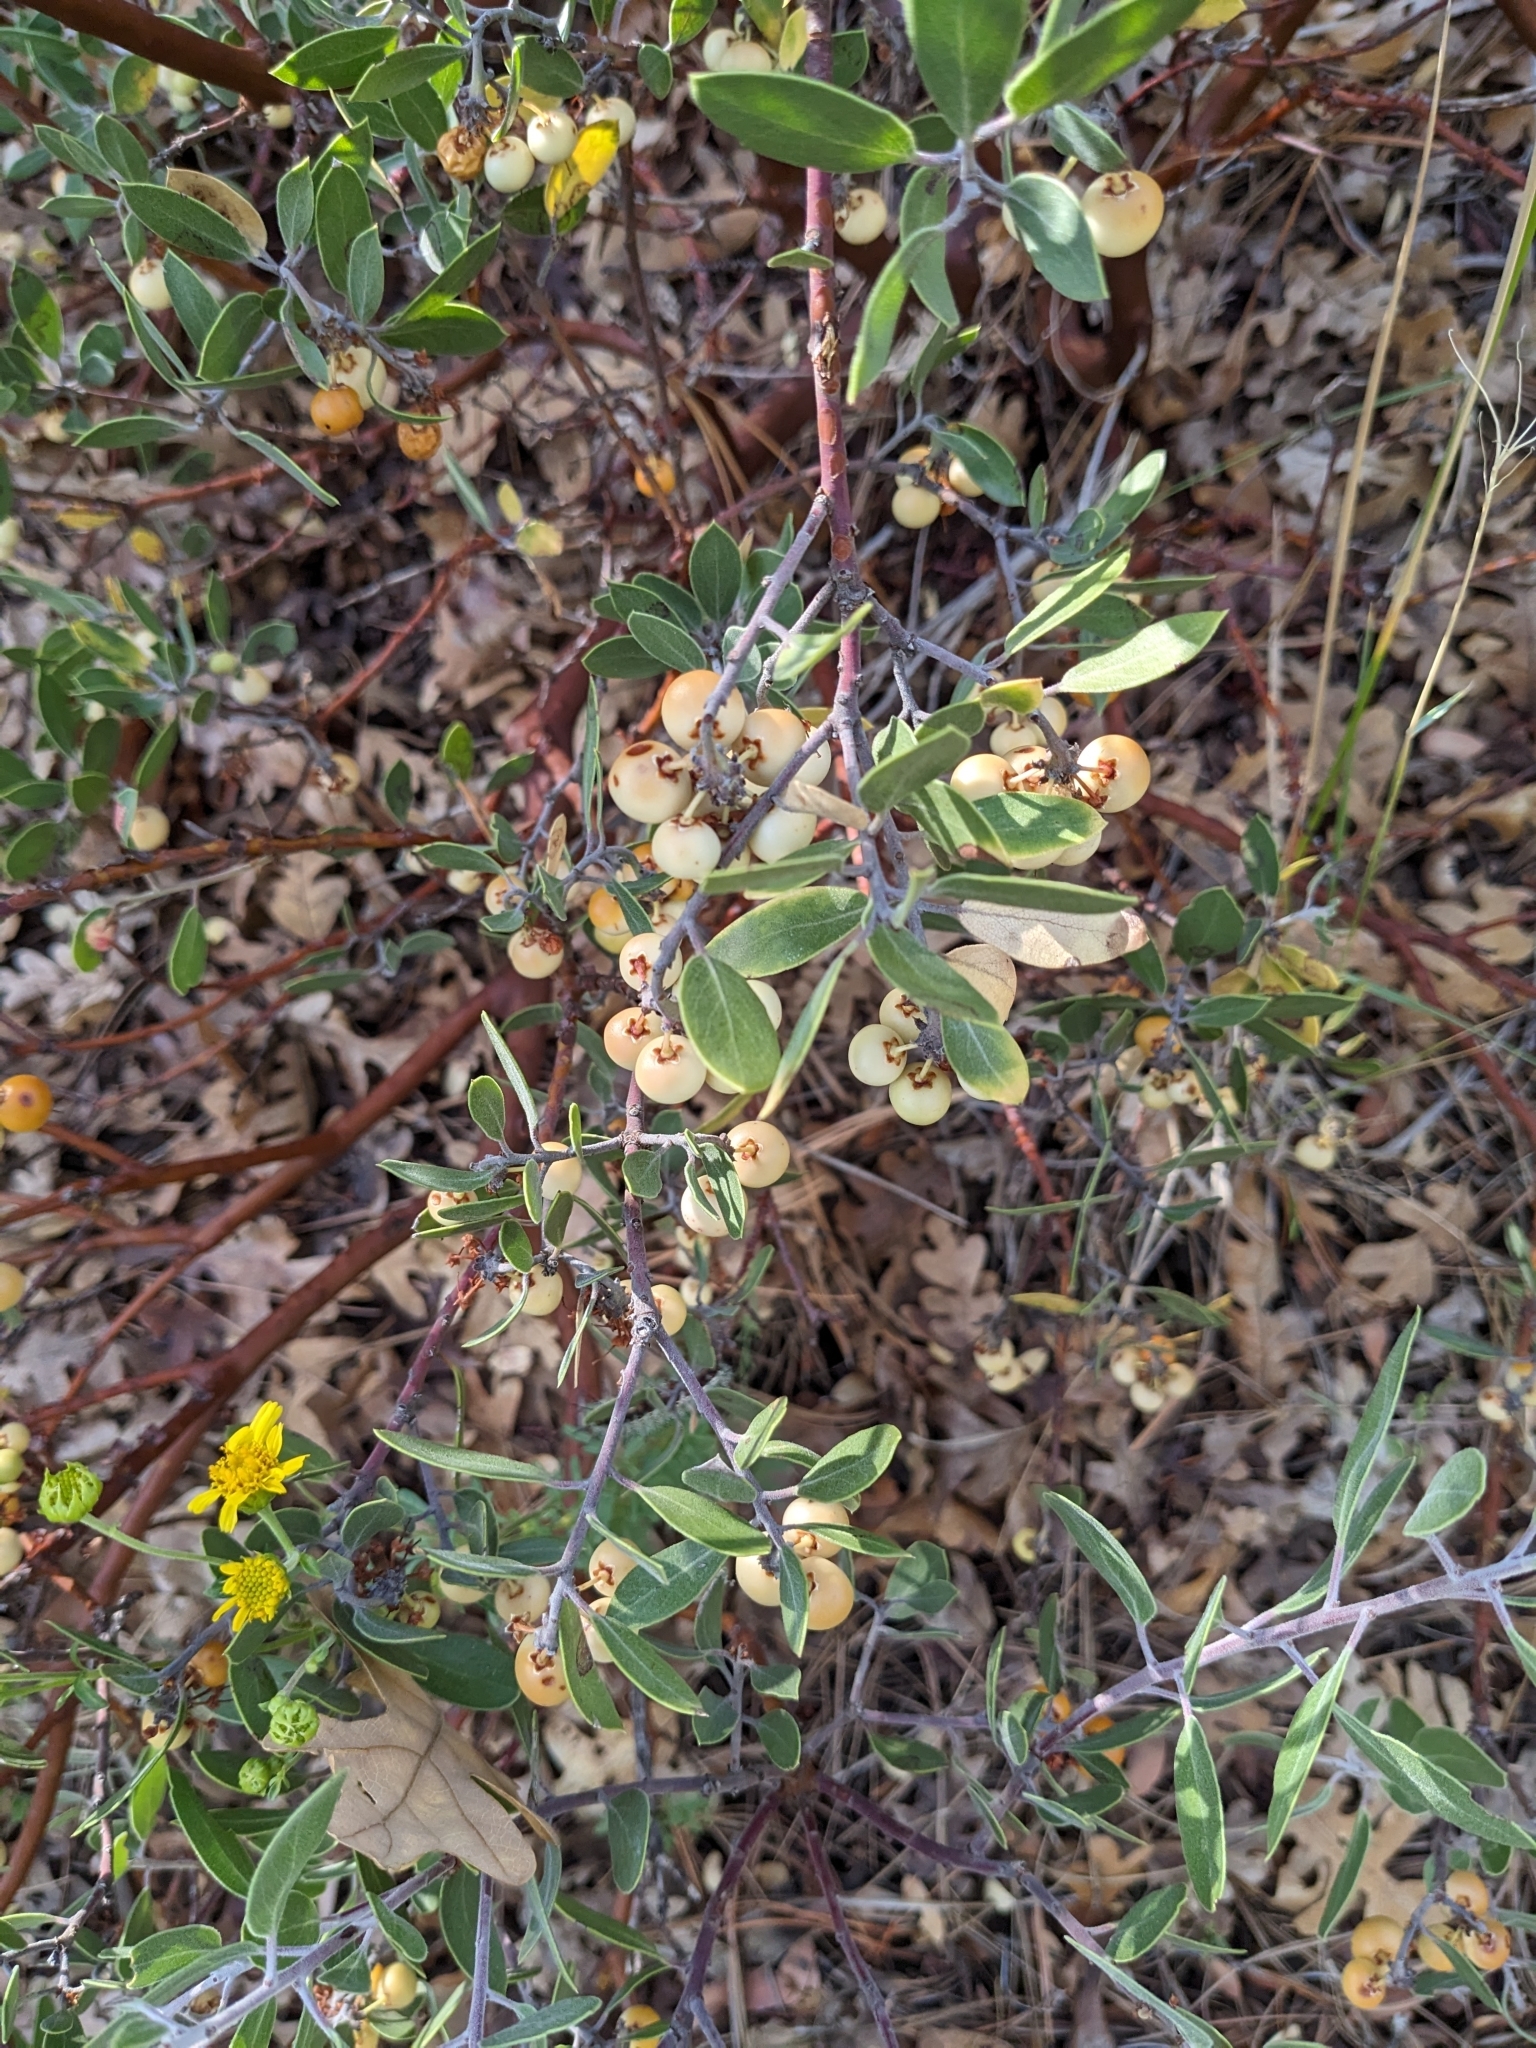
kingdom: Plantae
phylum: Tracheophyta
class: Magnoliopsida
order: Ericales
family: Ericaceae
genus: Arctostaphylos
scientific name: Arctostaphylos pungens
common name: Mexican manzanita
